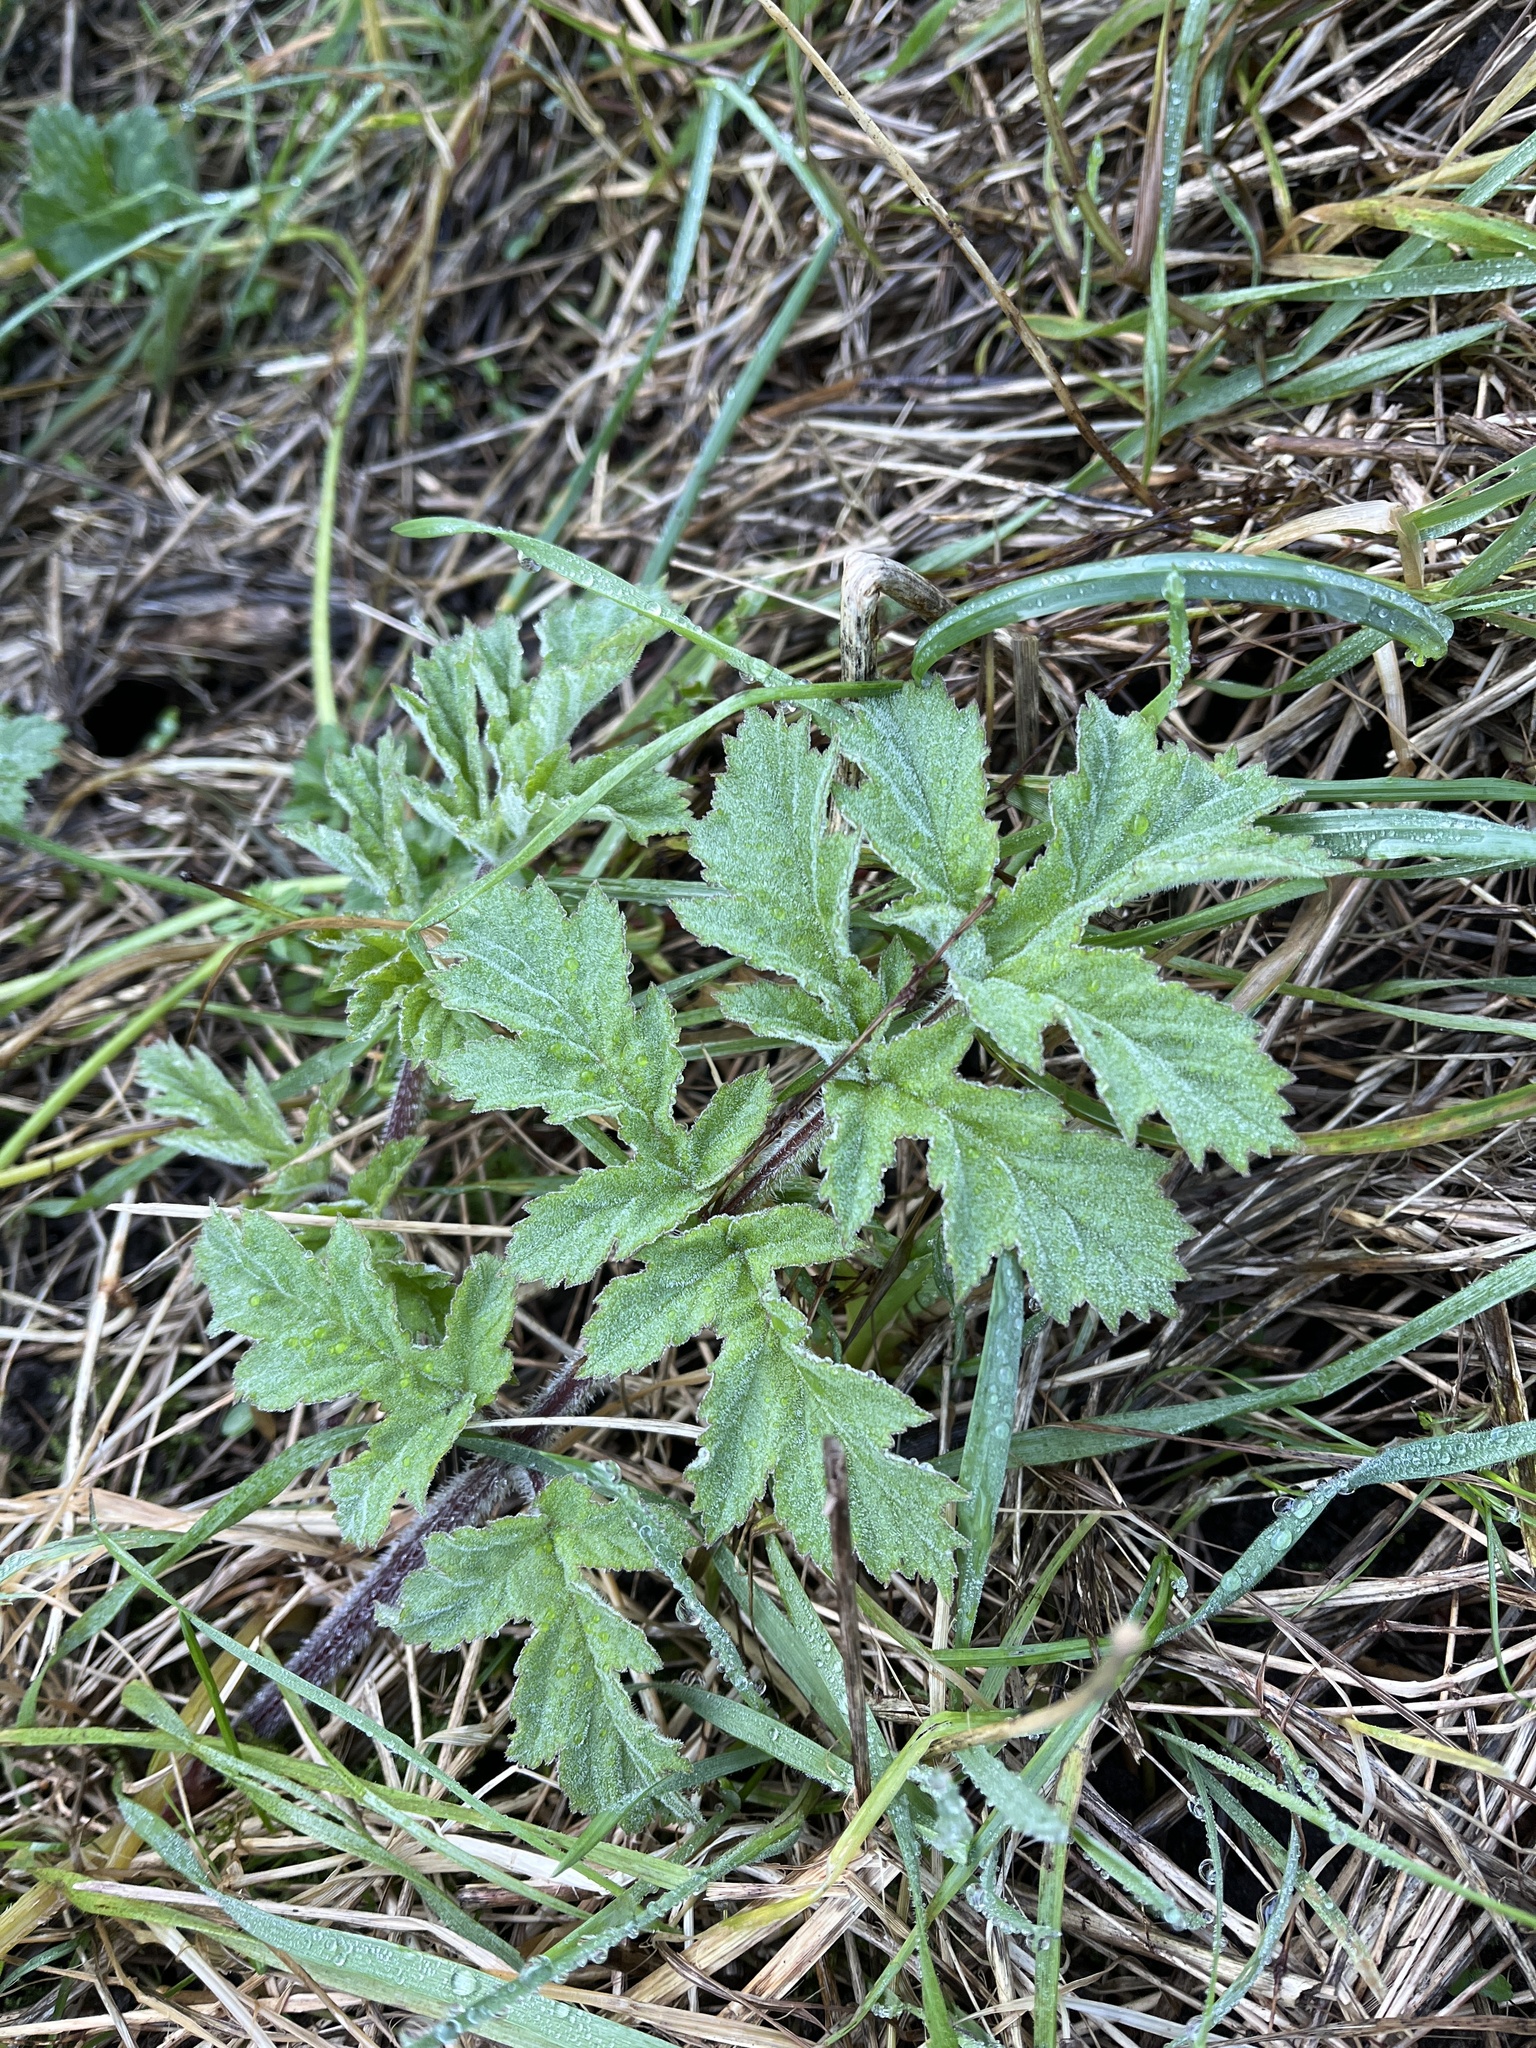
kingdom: Plantae
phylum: Tracheophyta
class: Magnoliopsida
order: Apiales
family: Apiaceae
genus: Heracleum
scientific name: Heracleum mantegazzianum
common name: Giant hogweed
